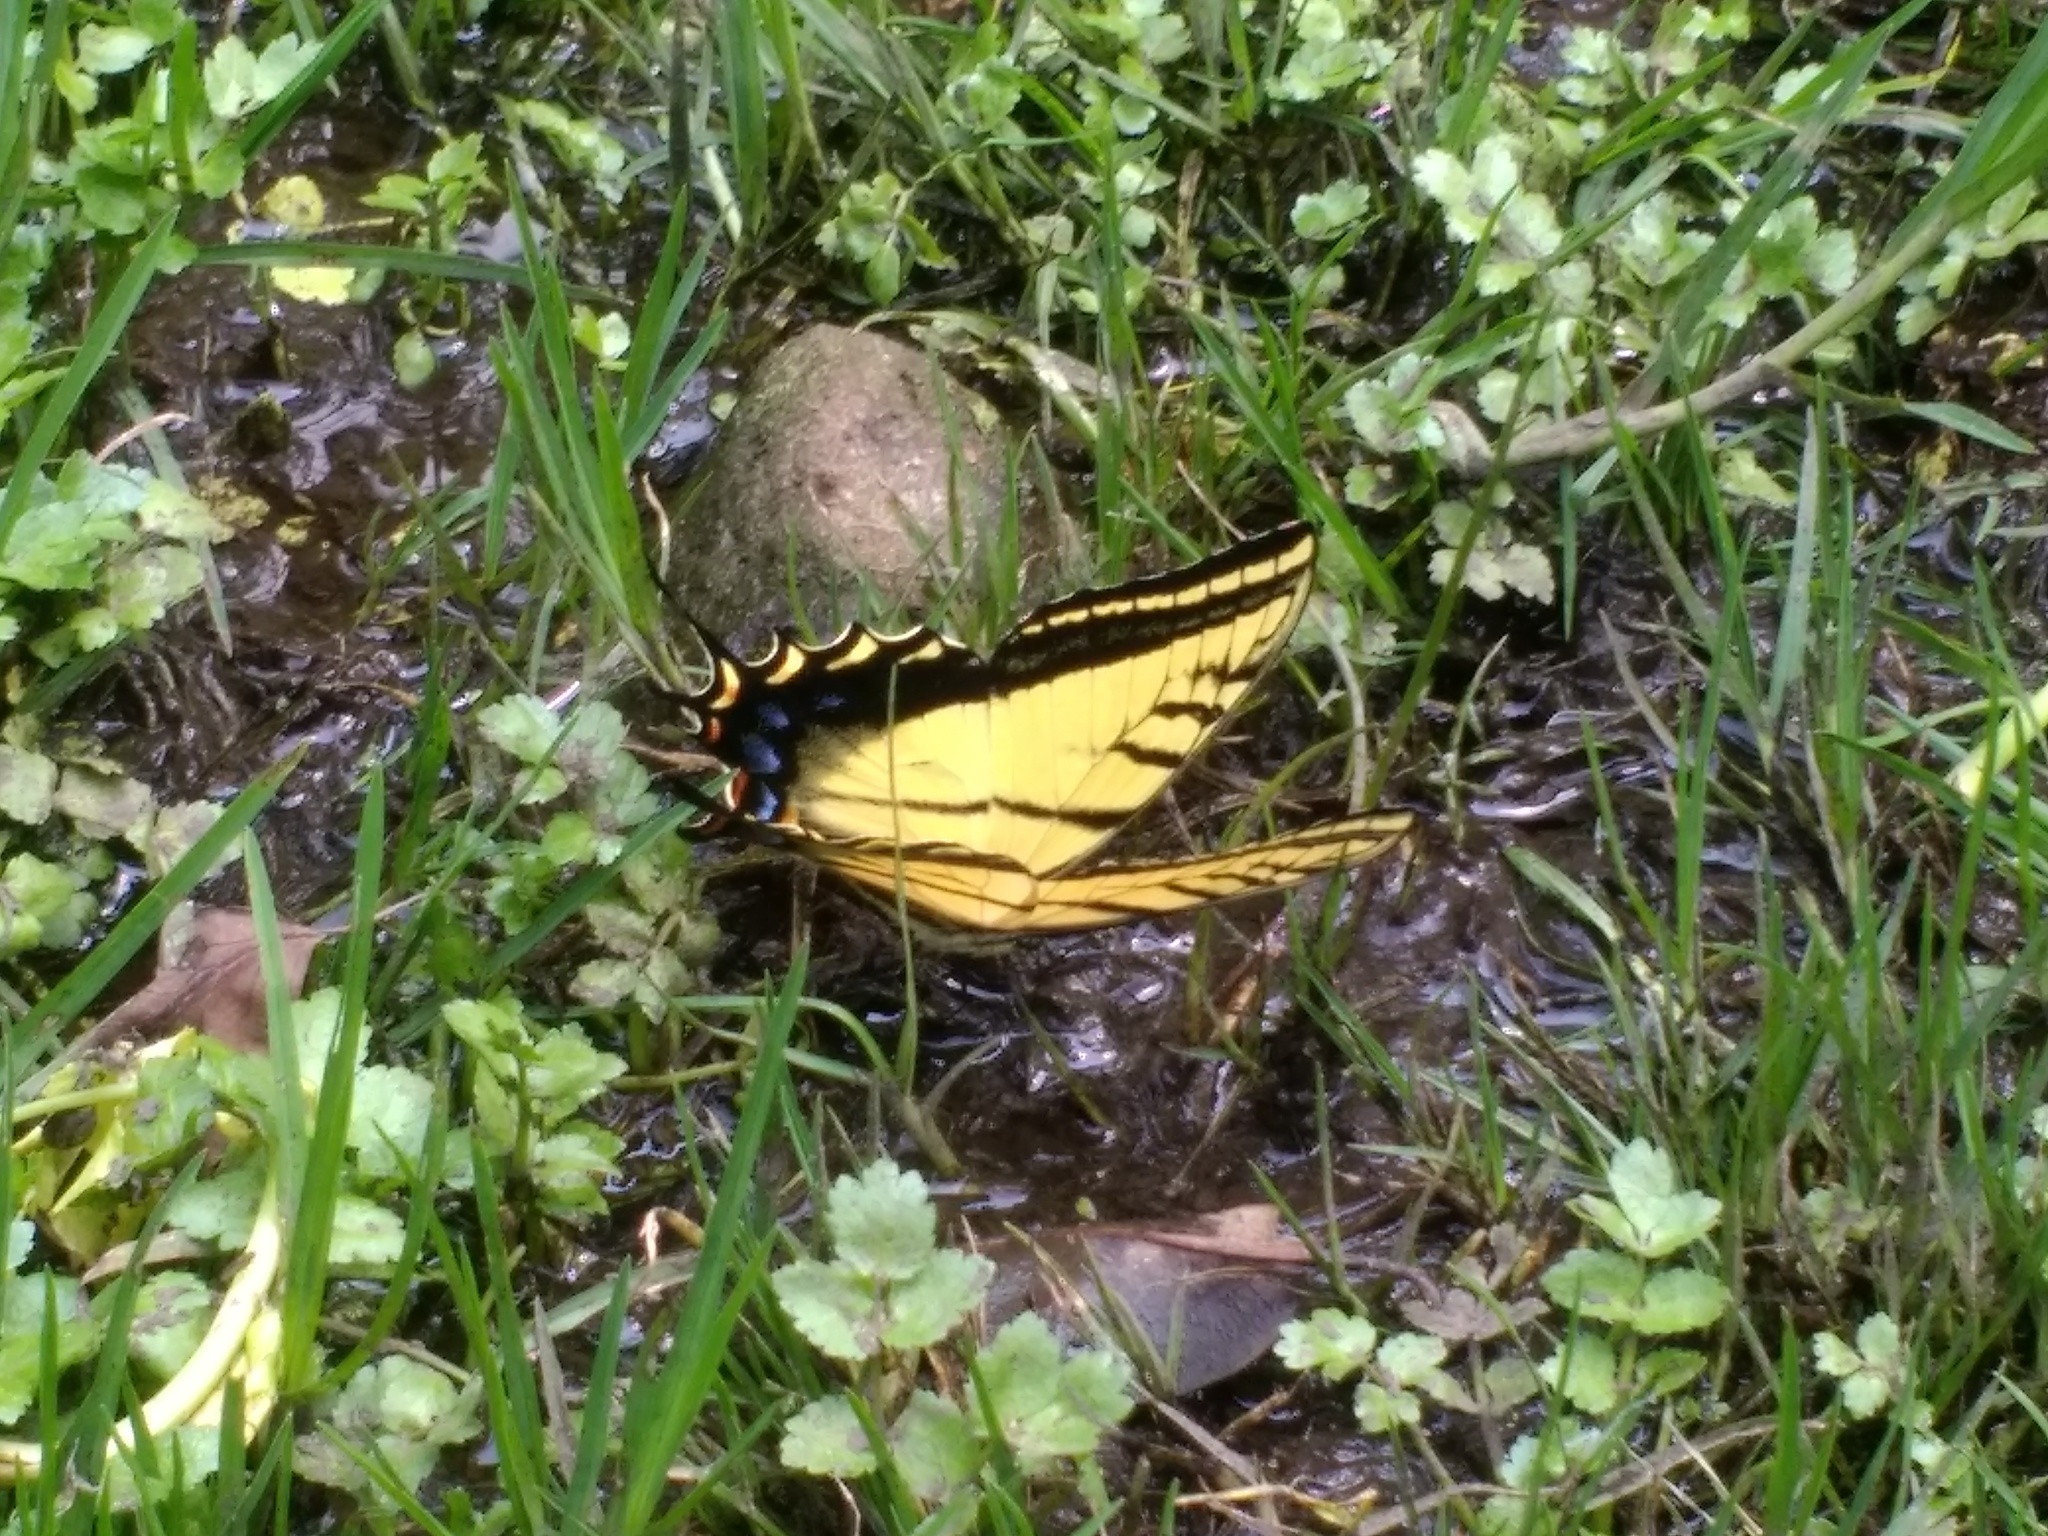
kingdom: Animalia
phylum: Arthropoda
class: Insecta
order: Lepidoptera
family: Papilionidae
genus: Papilio
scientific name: Papilio multicaudata
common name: Two-tailed tiger swallowtail
